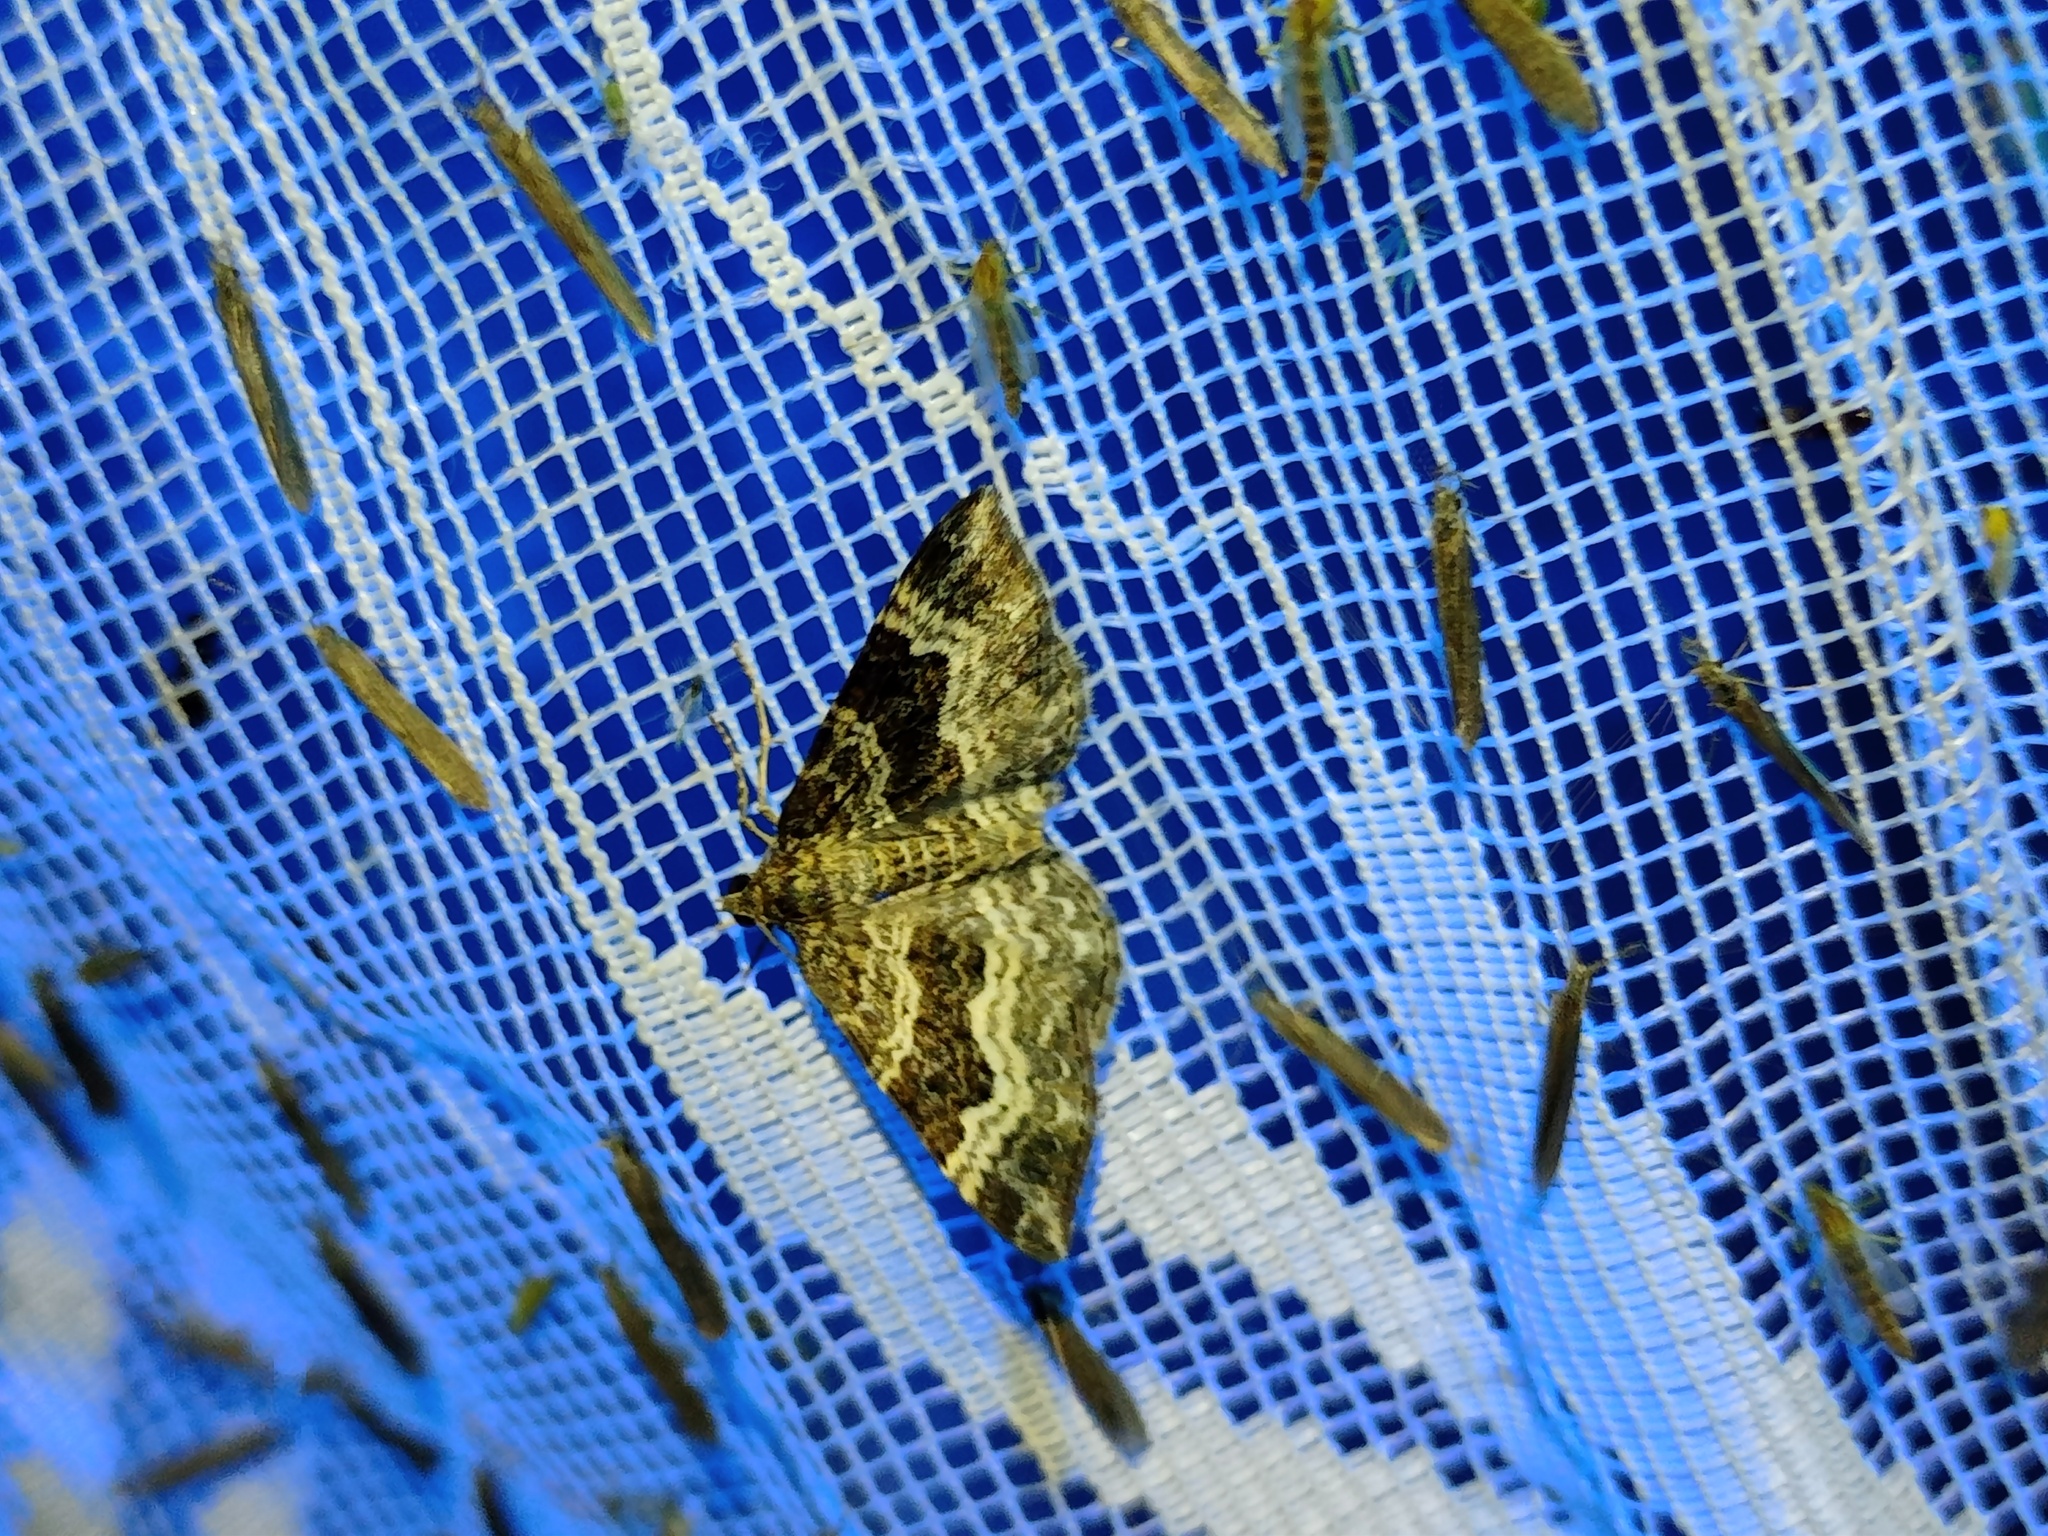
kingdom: Animalia
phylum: Arthropoda
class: Insecta
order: Lepidoptera
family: Geometridae
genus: Epirrhoe
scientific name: Epirrhoe alternata
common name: Common carpet
